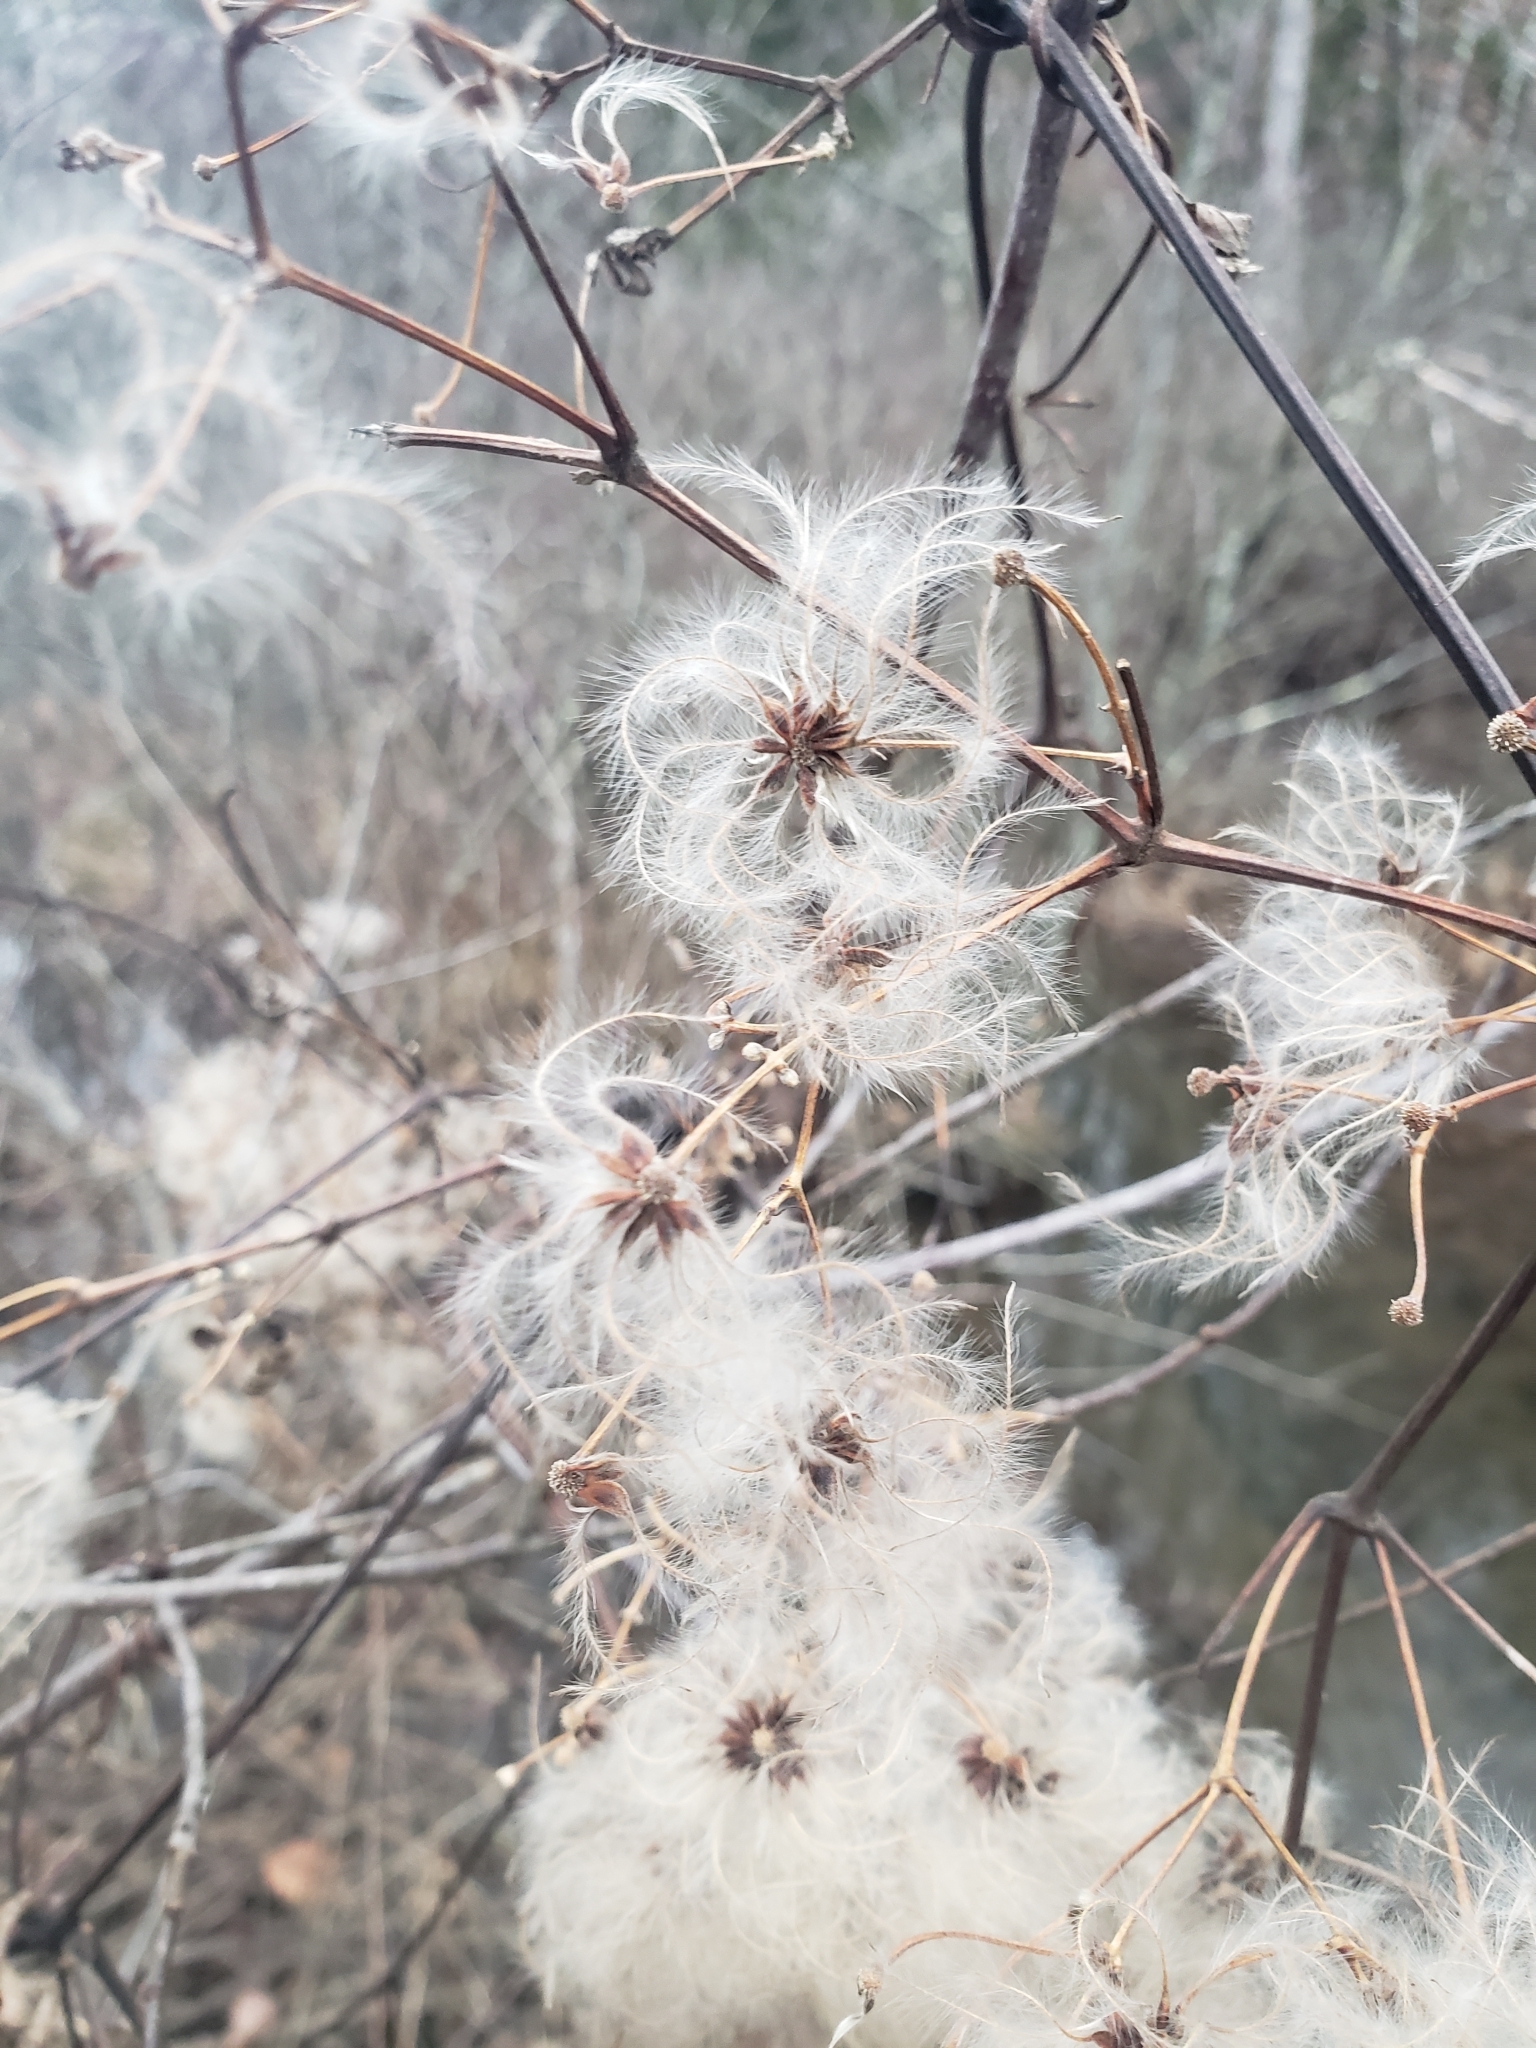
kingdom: Plantae
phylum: Tracheophyta
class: Magnoliopsida
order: Ranunculales
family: Ranunculaceae
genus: Clematis
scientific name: Clematis virginiana
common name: Virgin's-bower
